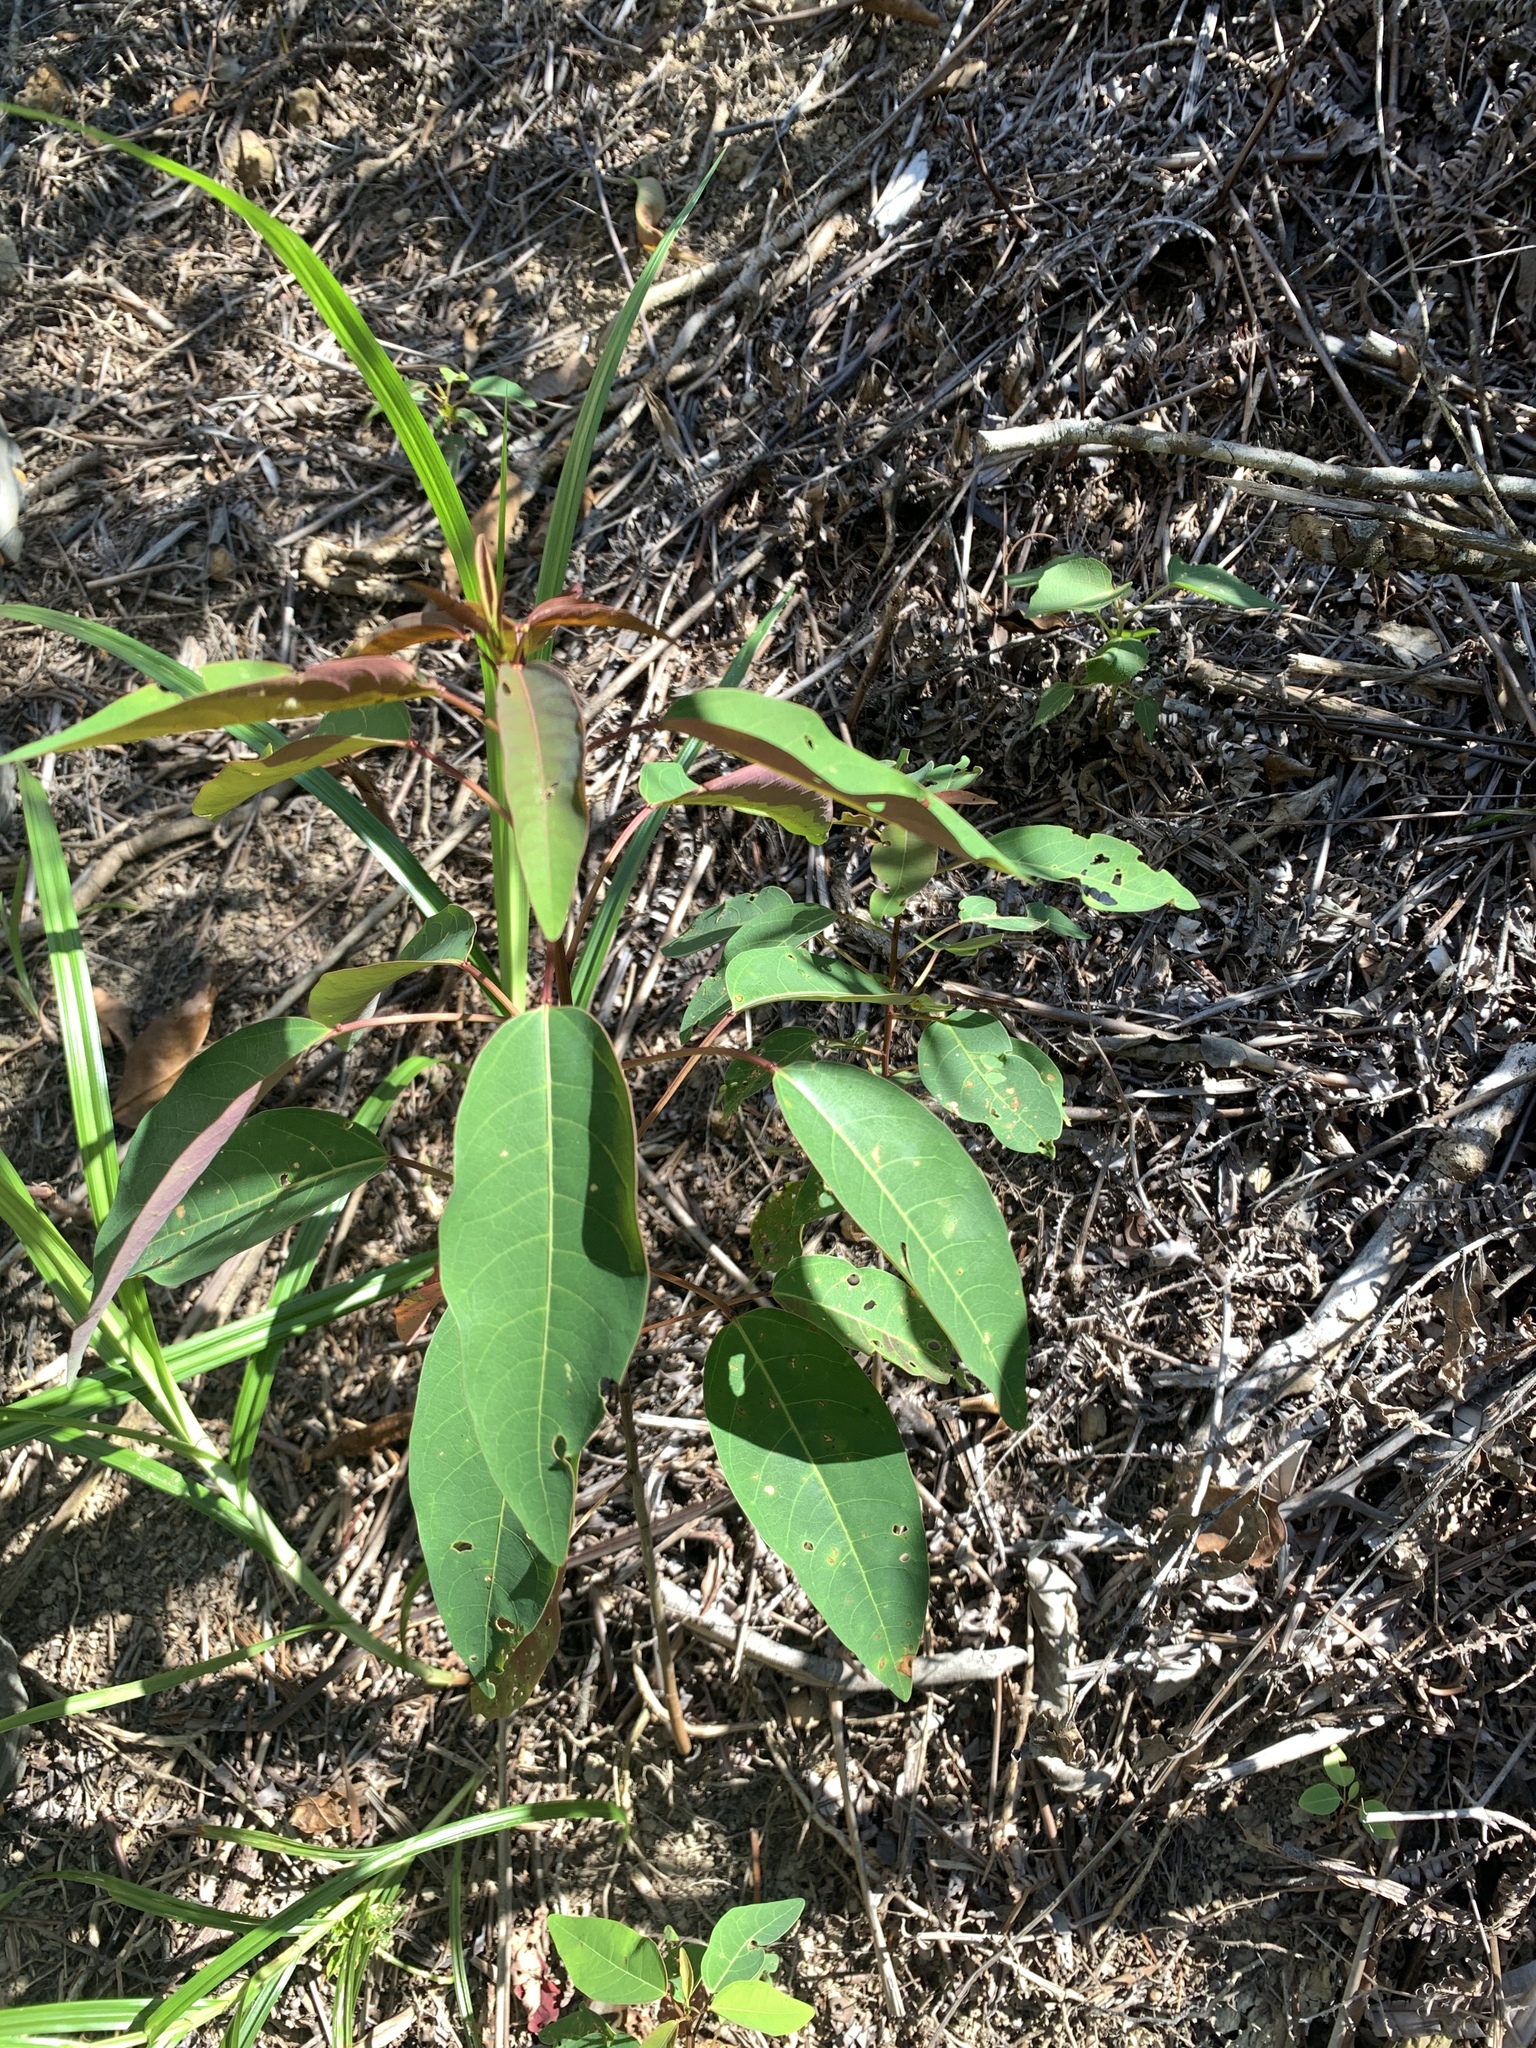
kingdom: Plantae
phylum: Tracheophyta
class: Magnoliopsida
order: Malpighiales
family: Euphorbiaceae
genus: Triadica
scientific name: Triadica cochinchinensis
